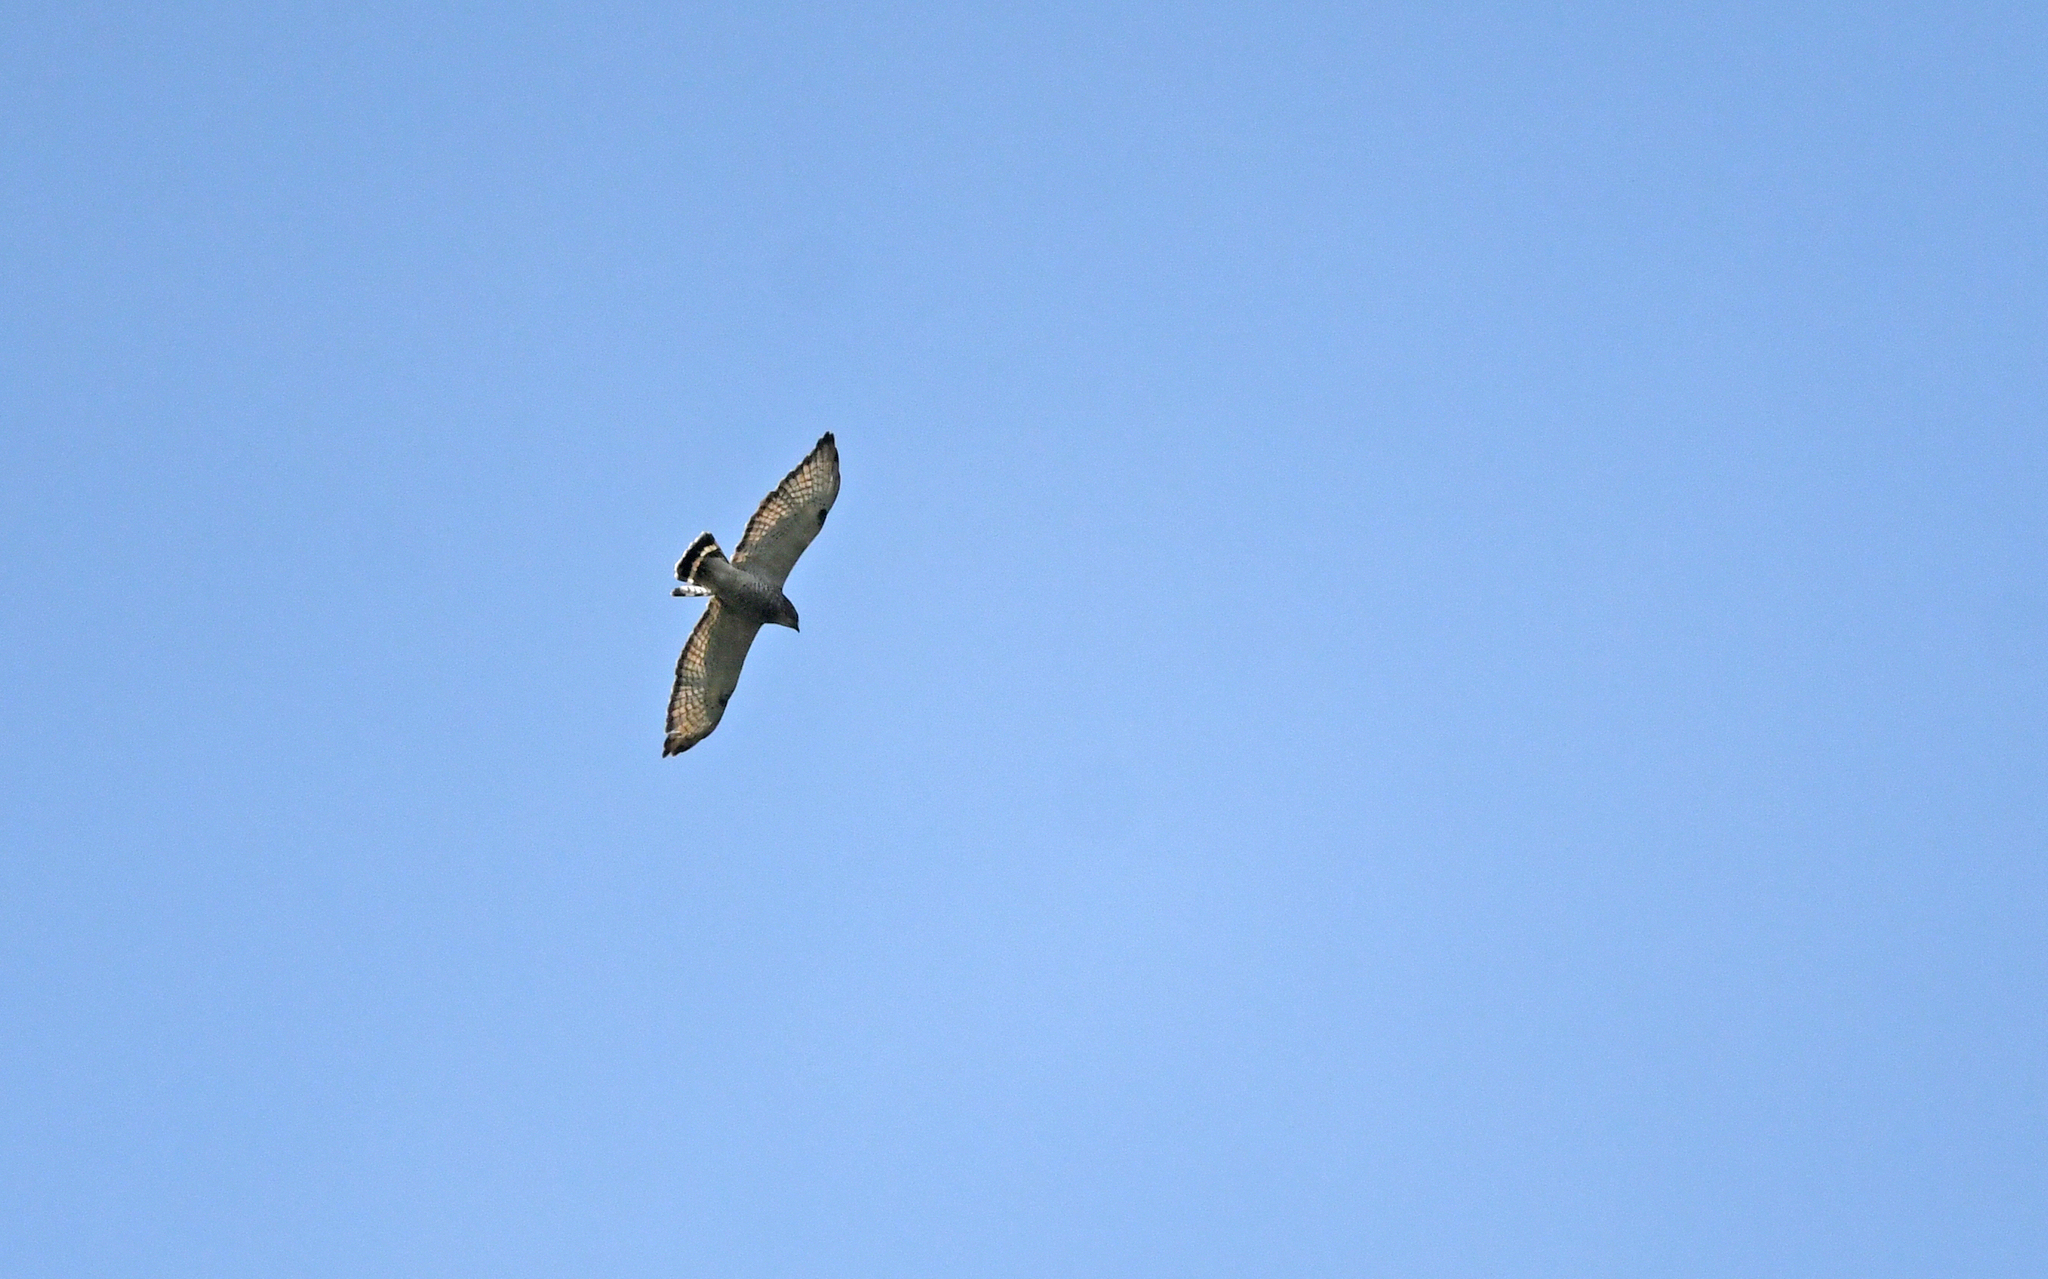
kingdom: Animalia
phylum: Chordata
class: Aves
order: Accipitriformes
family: Accipitridae
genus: Buteo
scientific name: Buteo platypterus
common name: Broad-winged hawk
